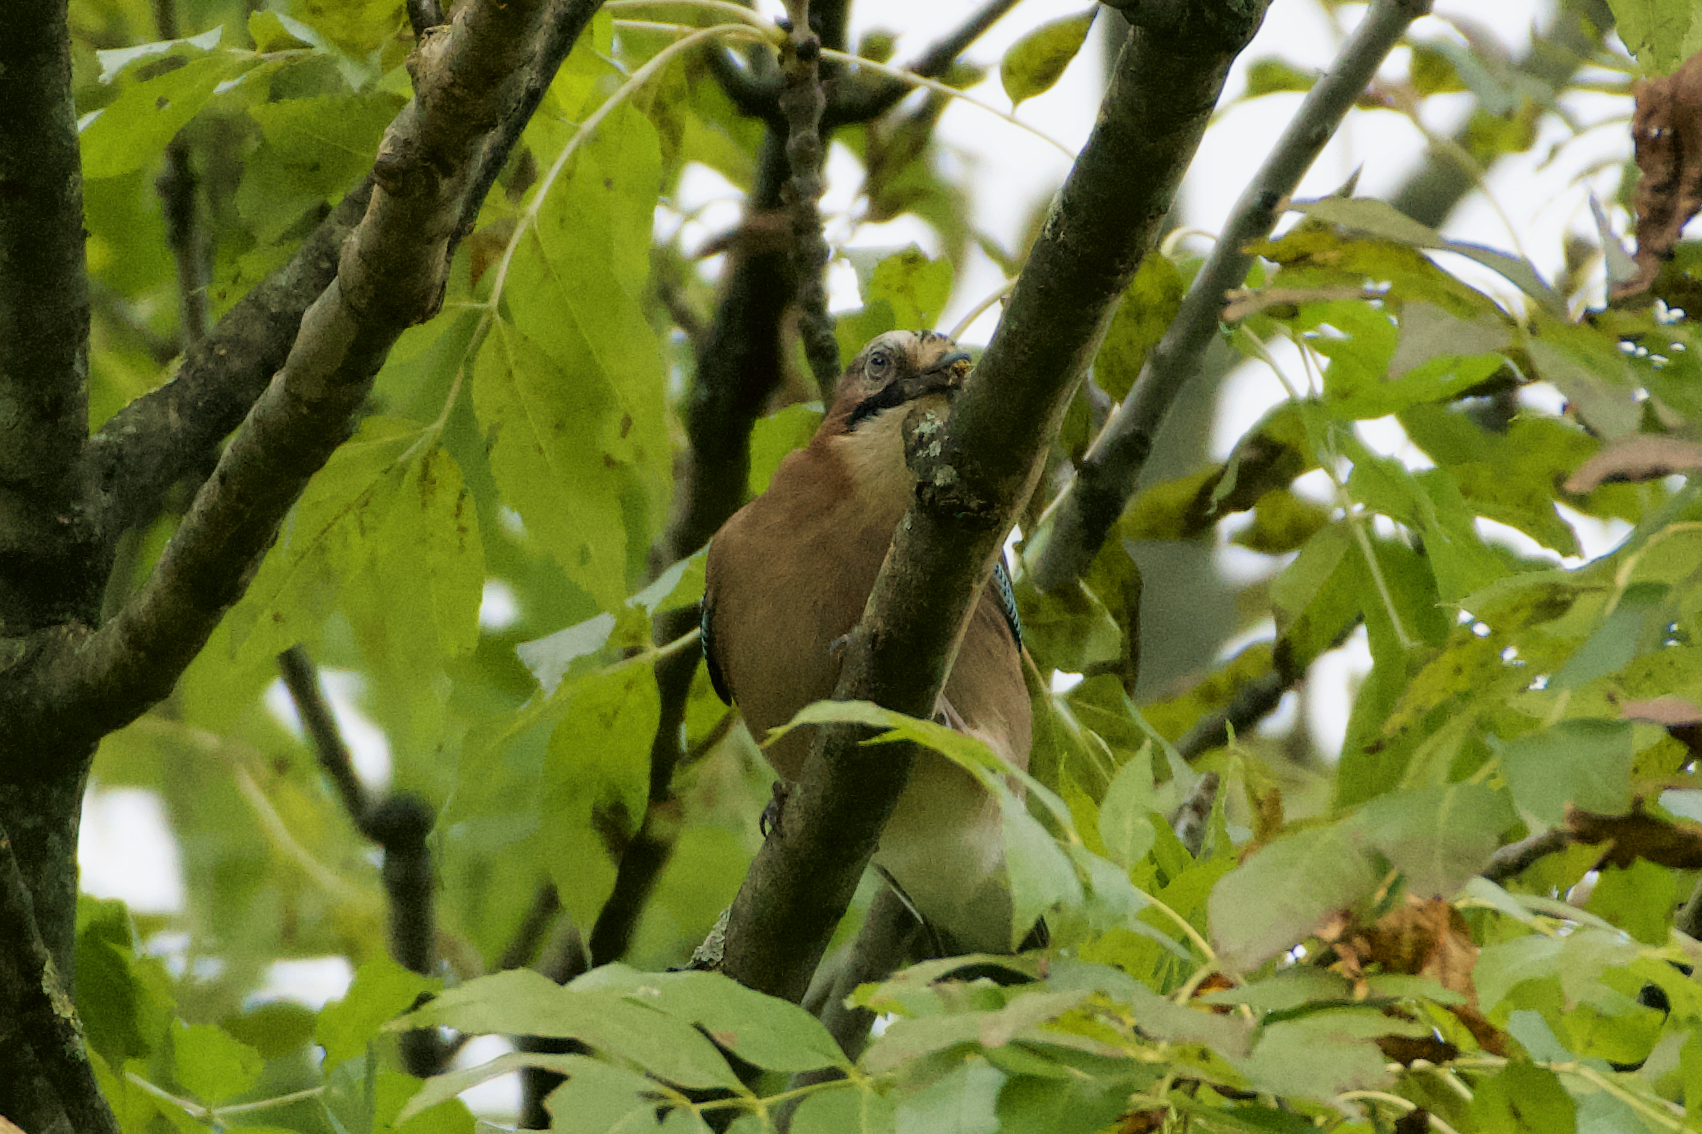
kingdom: Animalia
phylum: Chordata
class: Aves
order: Passeriformes
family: Corvidae
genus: Garrulus
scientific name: Garrulus glandarius
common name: Eurasian jay
